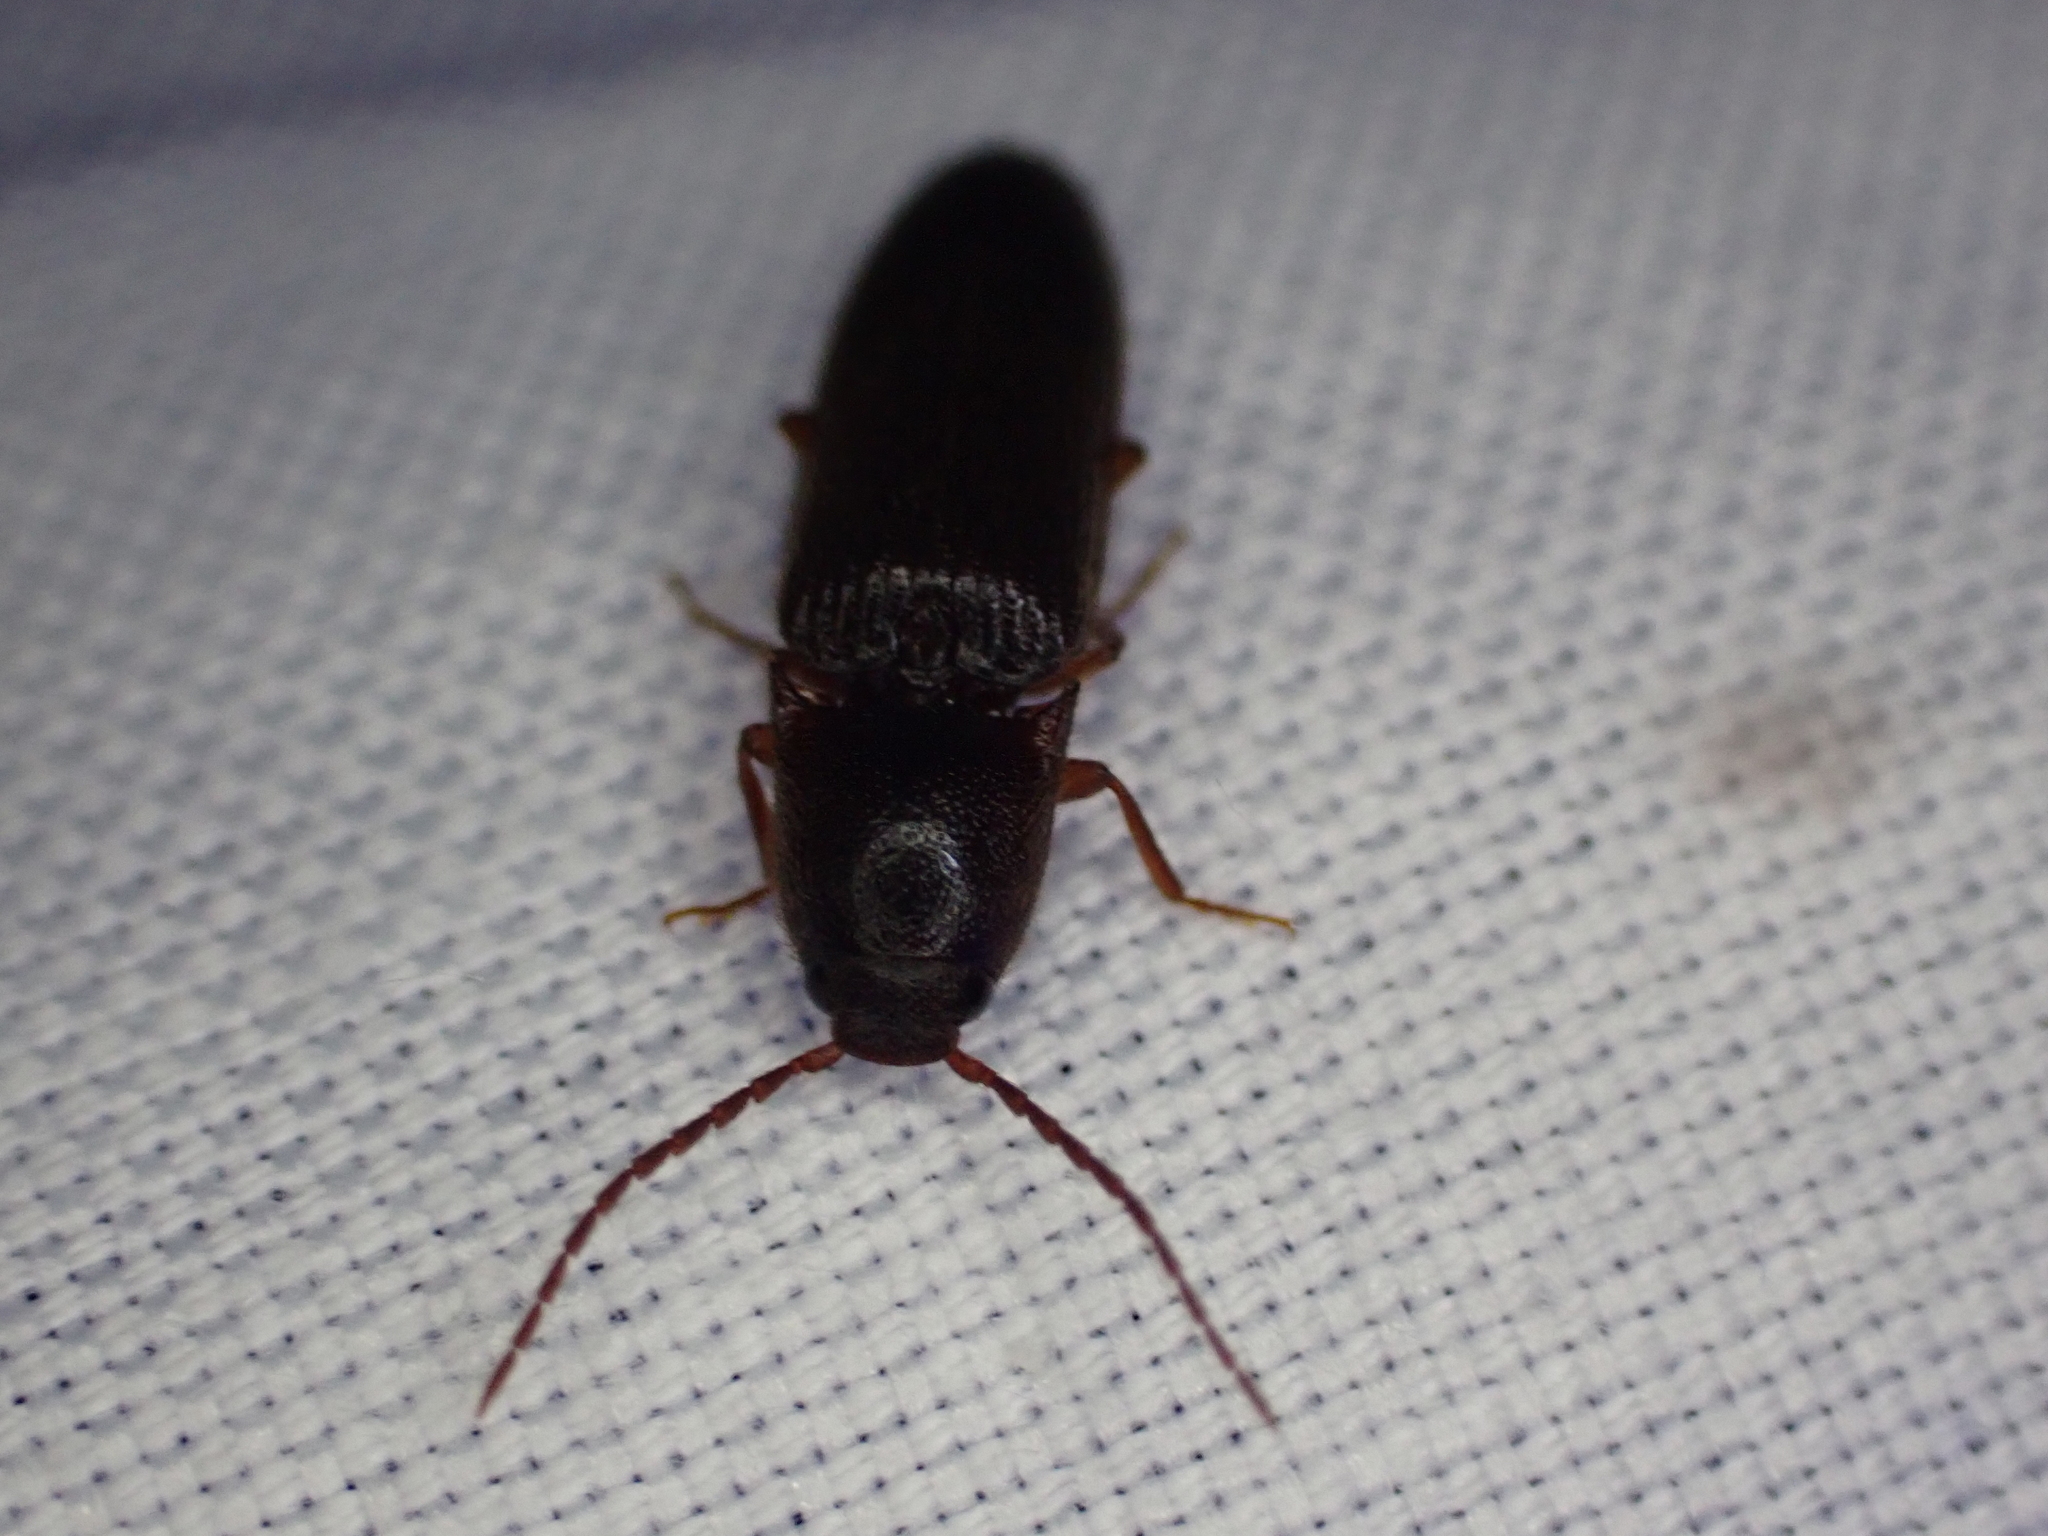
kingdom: Animalia
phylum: Arthropoda
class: Insecta
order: Coleoptera
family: Elateridae
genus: Dipropus
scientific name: Dipropus
